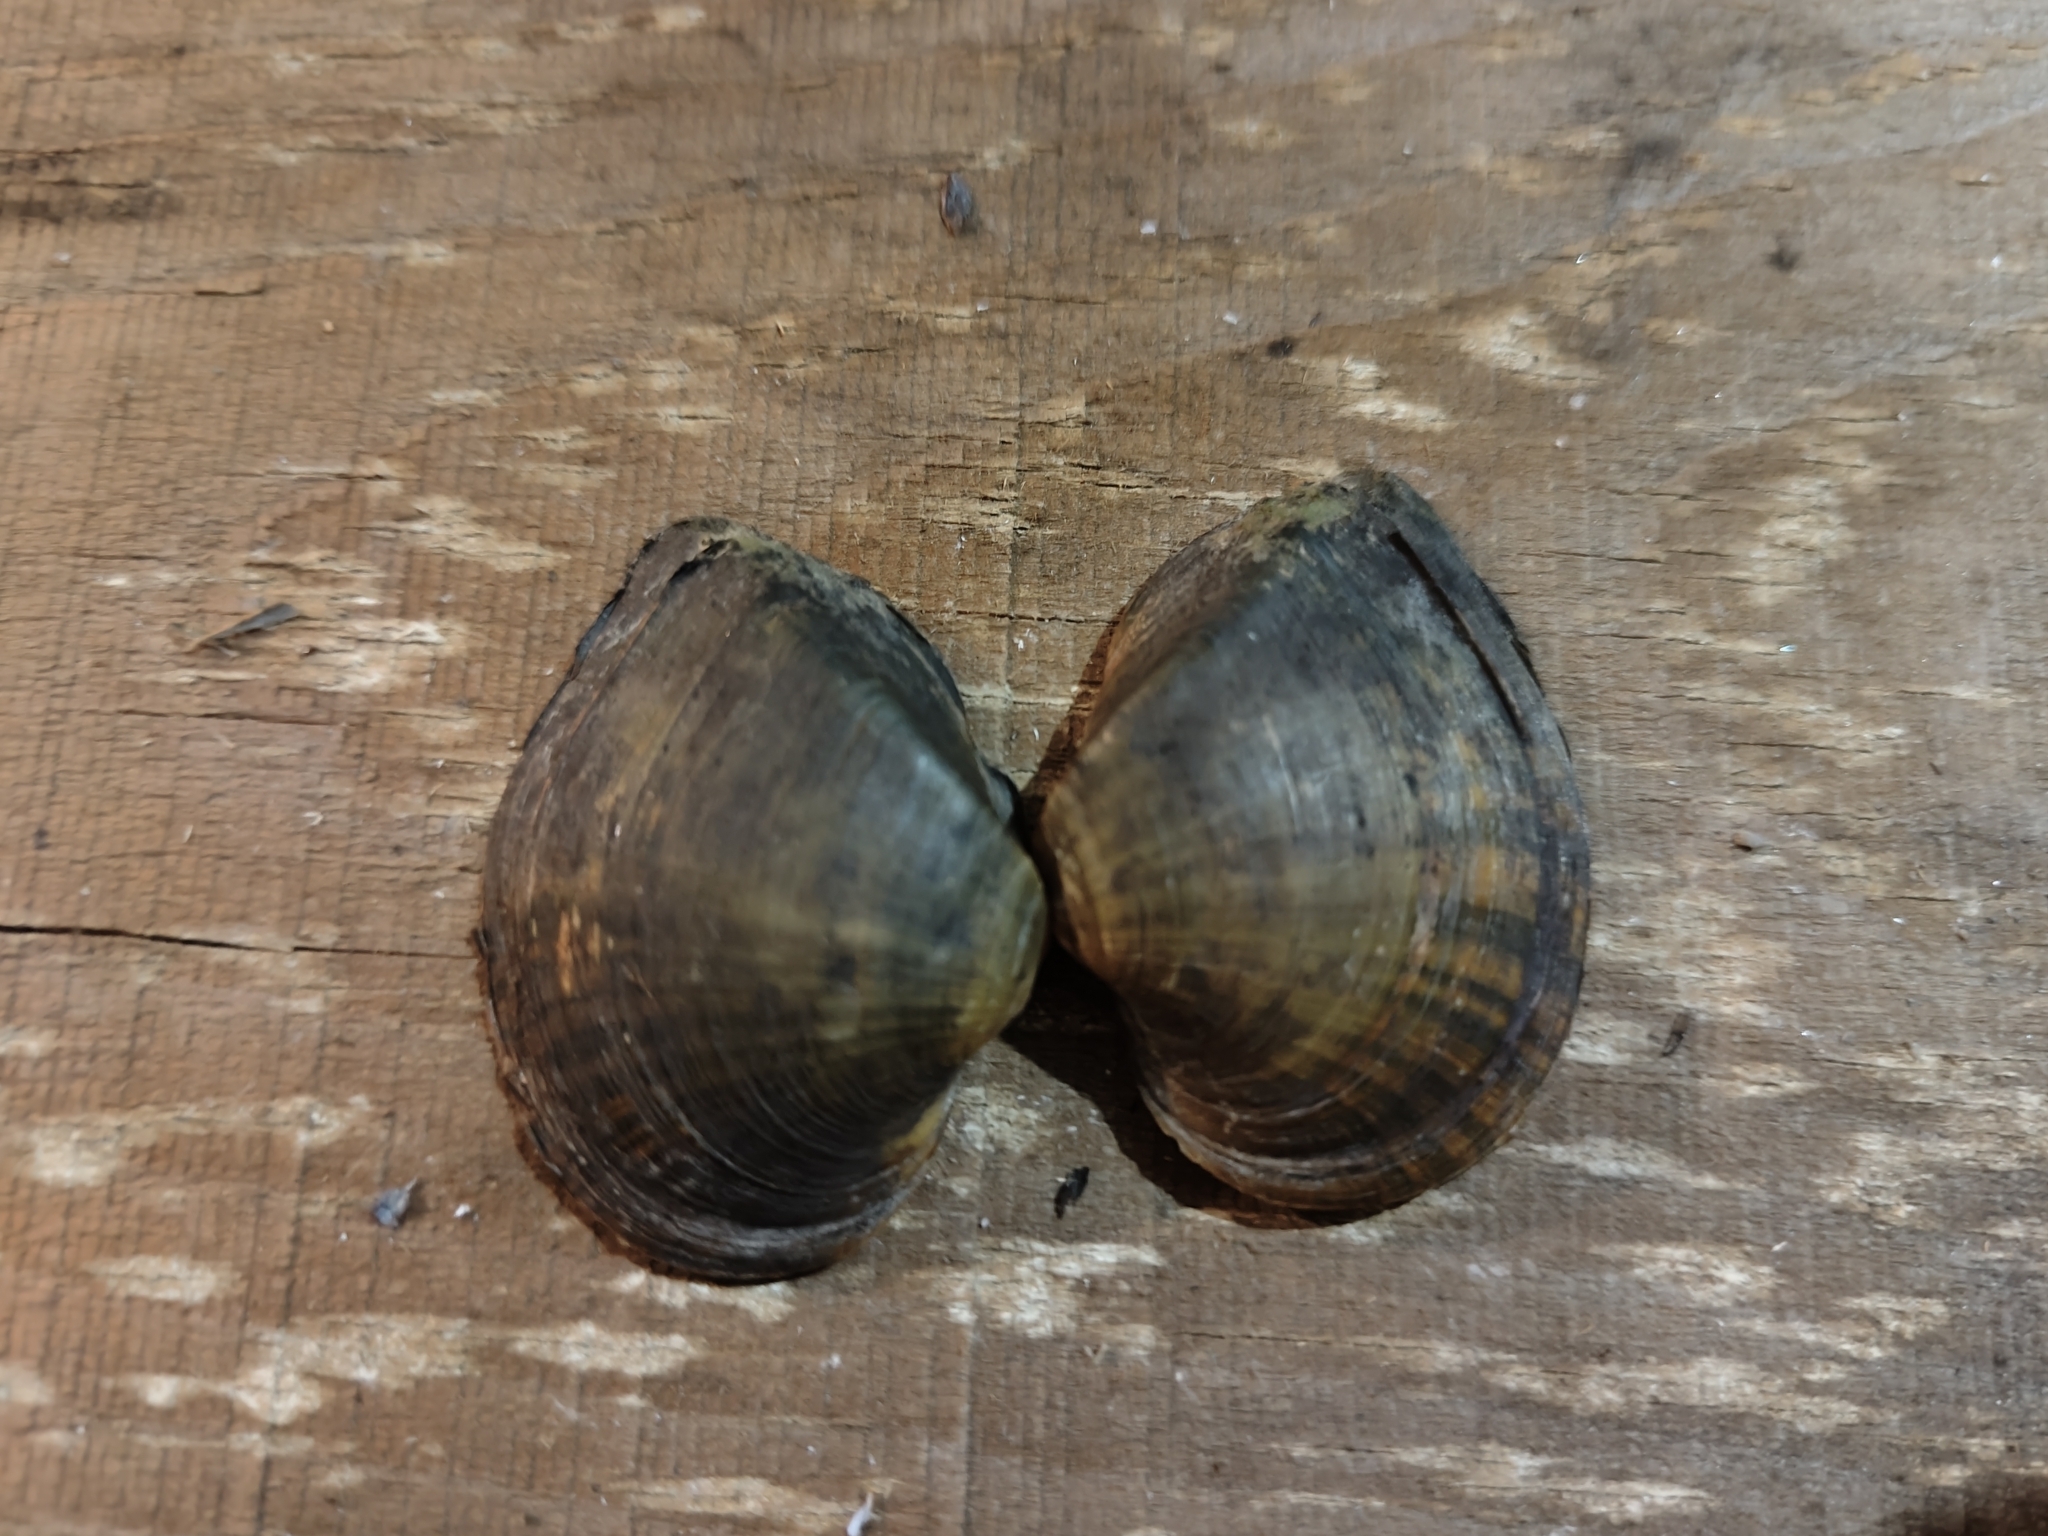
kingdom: Animalia
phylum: Mollusca
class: Bivalvia
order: Unionida
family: Unionidae
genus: Truncilla
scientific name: Truncilla truncata
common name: Deertoe
